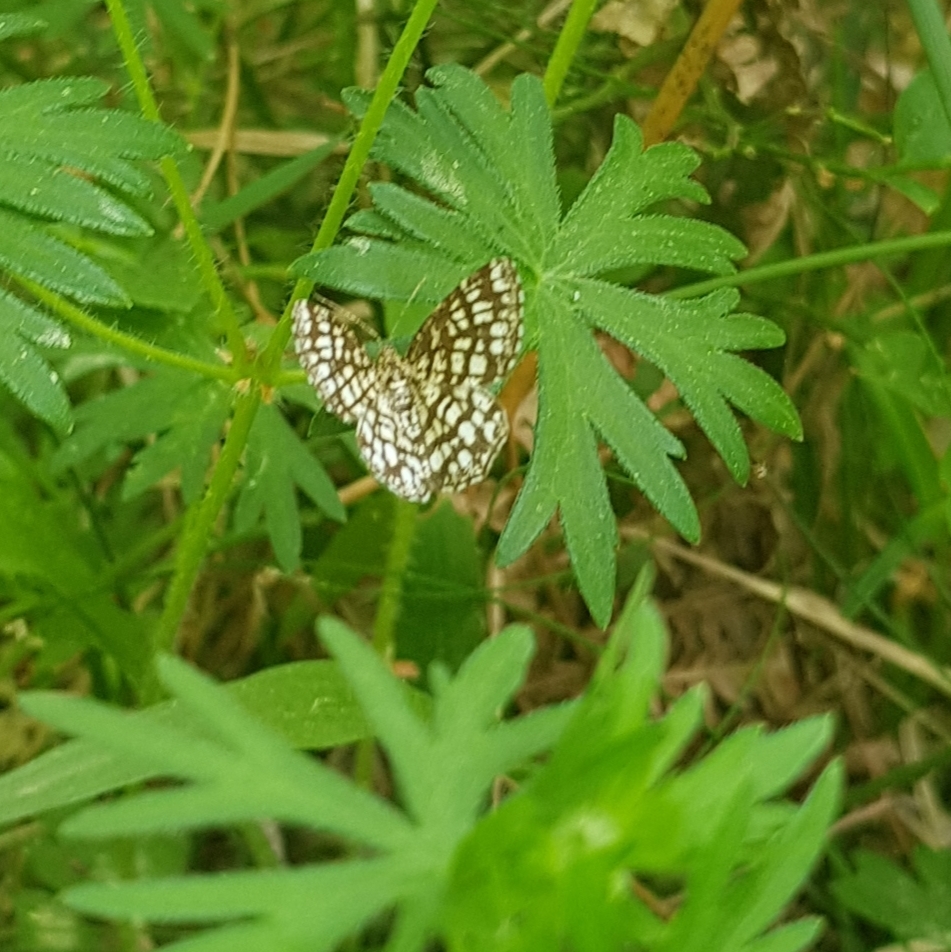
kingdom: Animalia
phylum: Arthropoda
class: Insecta
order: Lepidoptera
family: Geometridae
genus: Chiasmia
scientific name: Chiasmia clathrata
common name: Latticed heath
